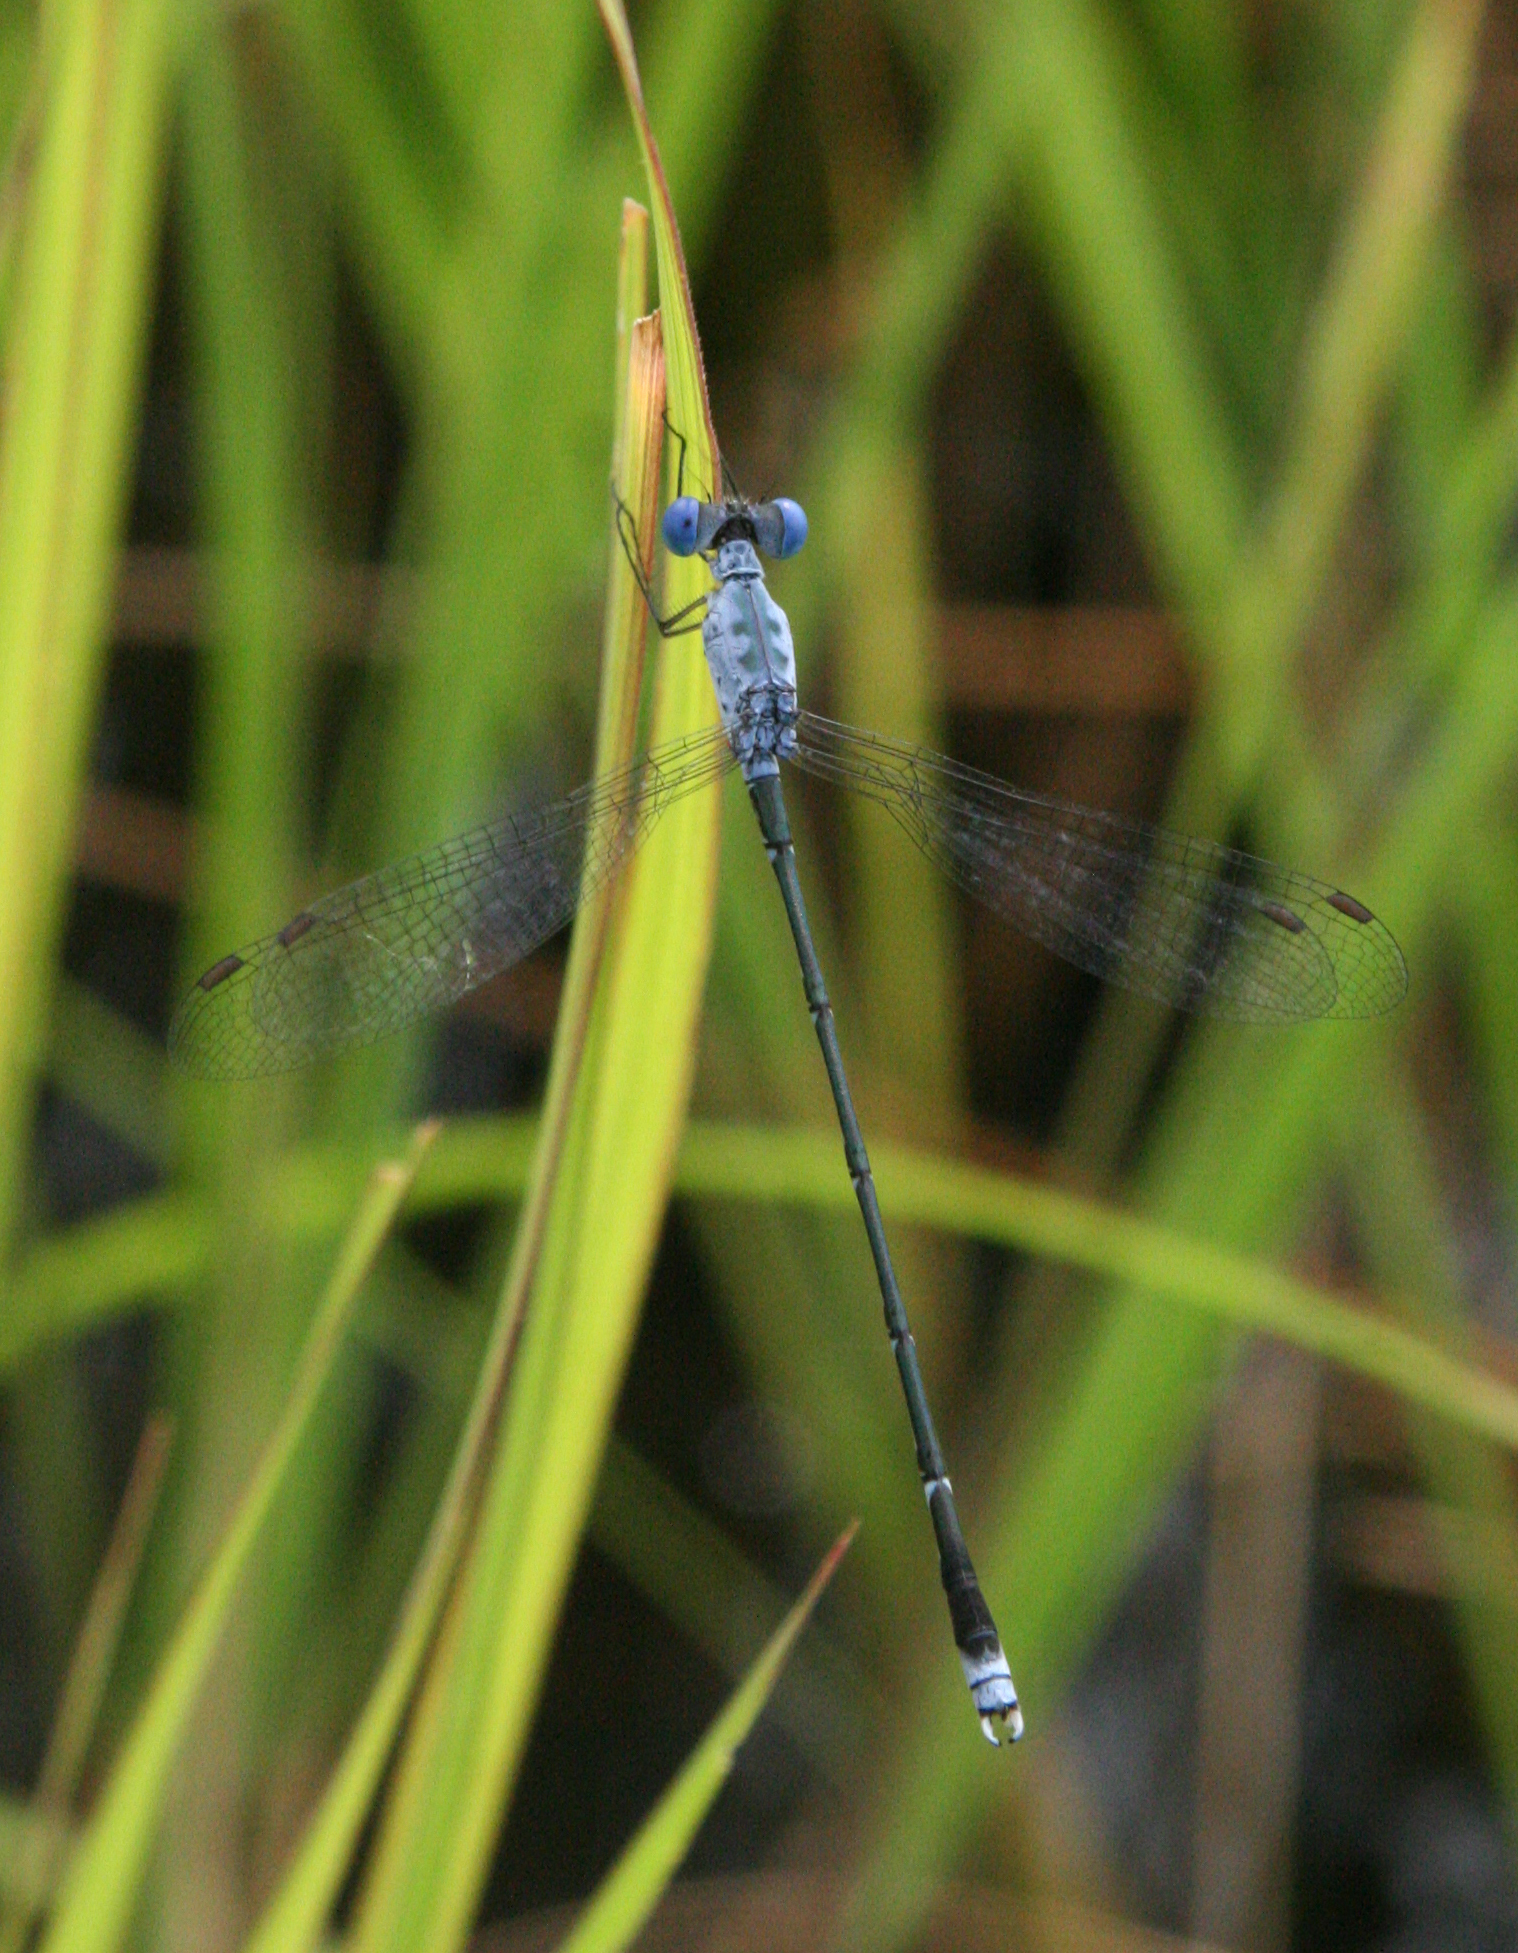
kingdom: Animalia
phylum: Arthropoda
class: Insecta
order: Odonata
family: Lestidae
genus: Lestes
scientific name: Lestes praemorsus
